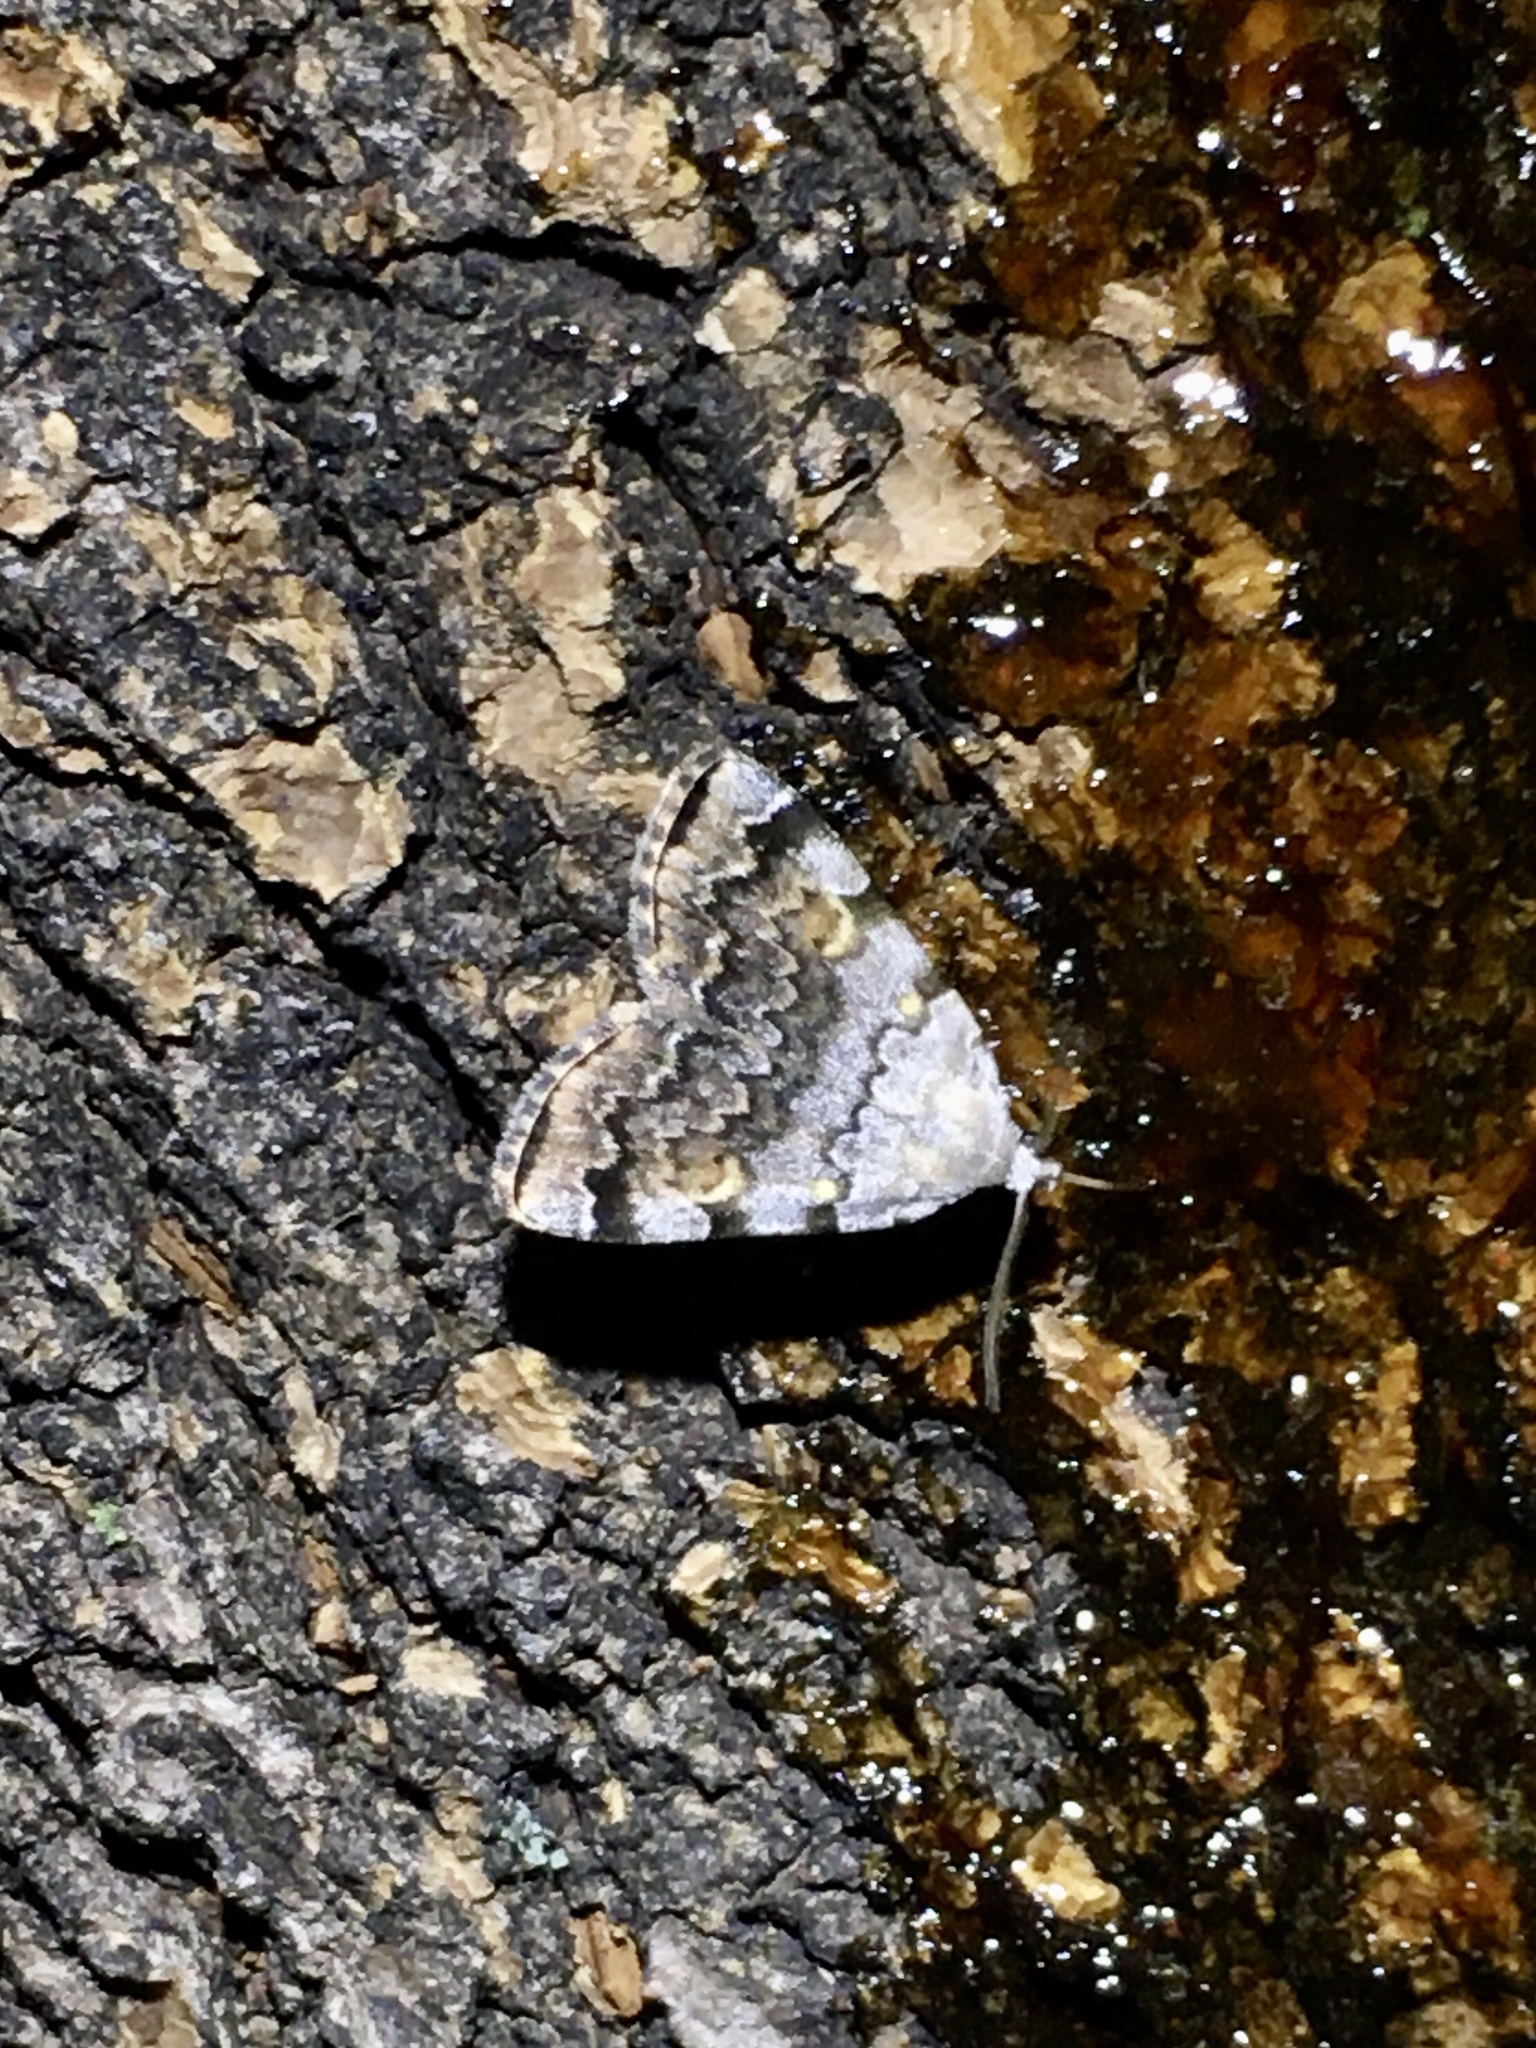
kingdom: Animalia
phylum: Arthropoda
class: Insecta
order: Lepidoptera
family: Erebidae
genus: Idia
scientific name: Idia americalis
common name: American idia moth
